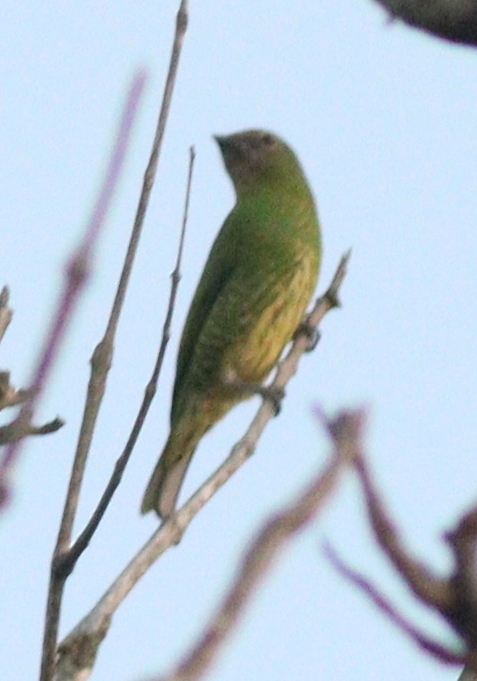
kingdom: Animalia
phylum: Chordata
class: Aves
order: Passeriformes
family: Thraupidae
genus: Tersina
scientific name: Tersina viridis
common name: Swallow tanager
